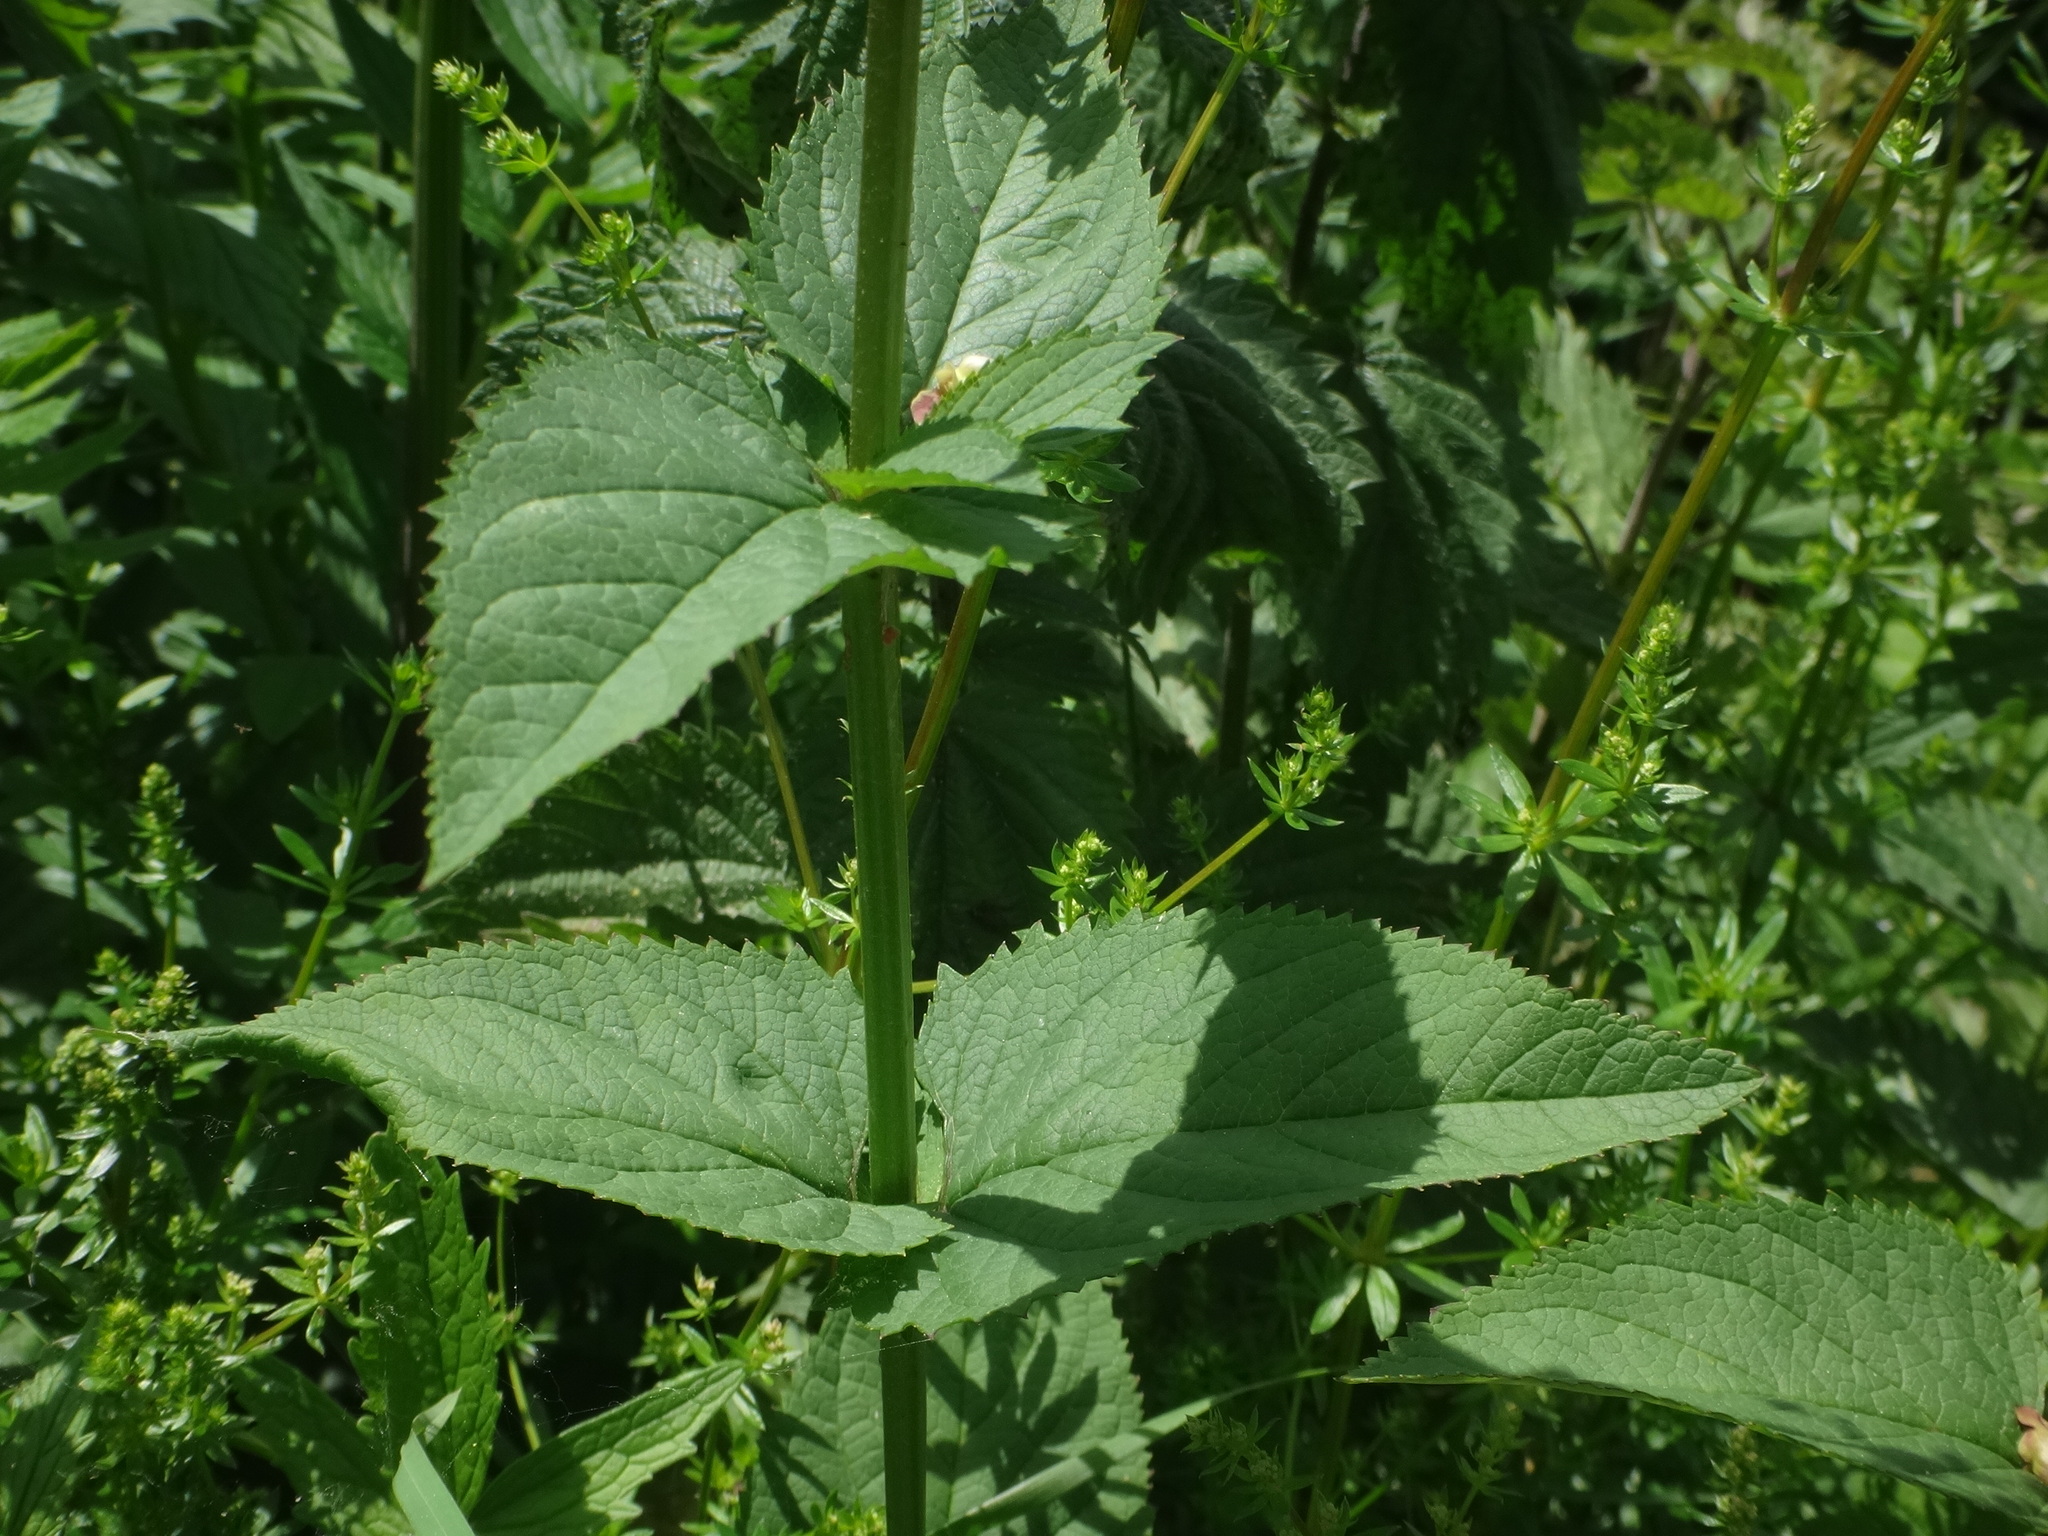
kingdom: Plantae
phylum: Tracheophyta
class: Magnoliopsida
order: Lamiales
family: Scrophulariaceae
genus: Scrophularia
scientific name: Scrophularia nodosa
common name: Common figwort
